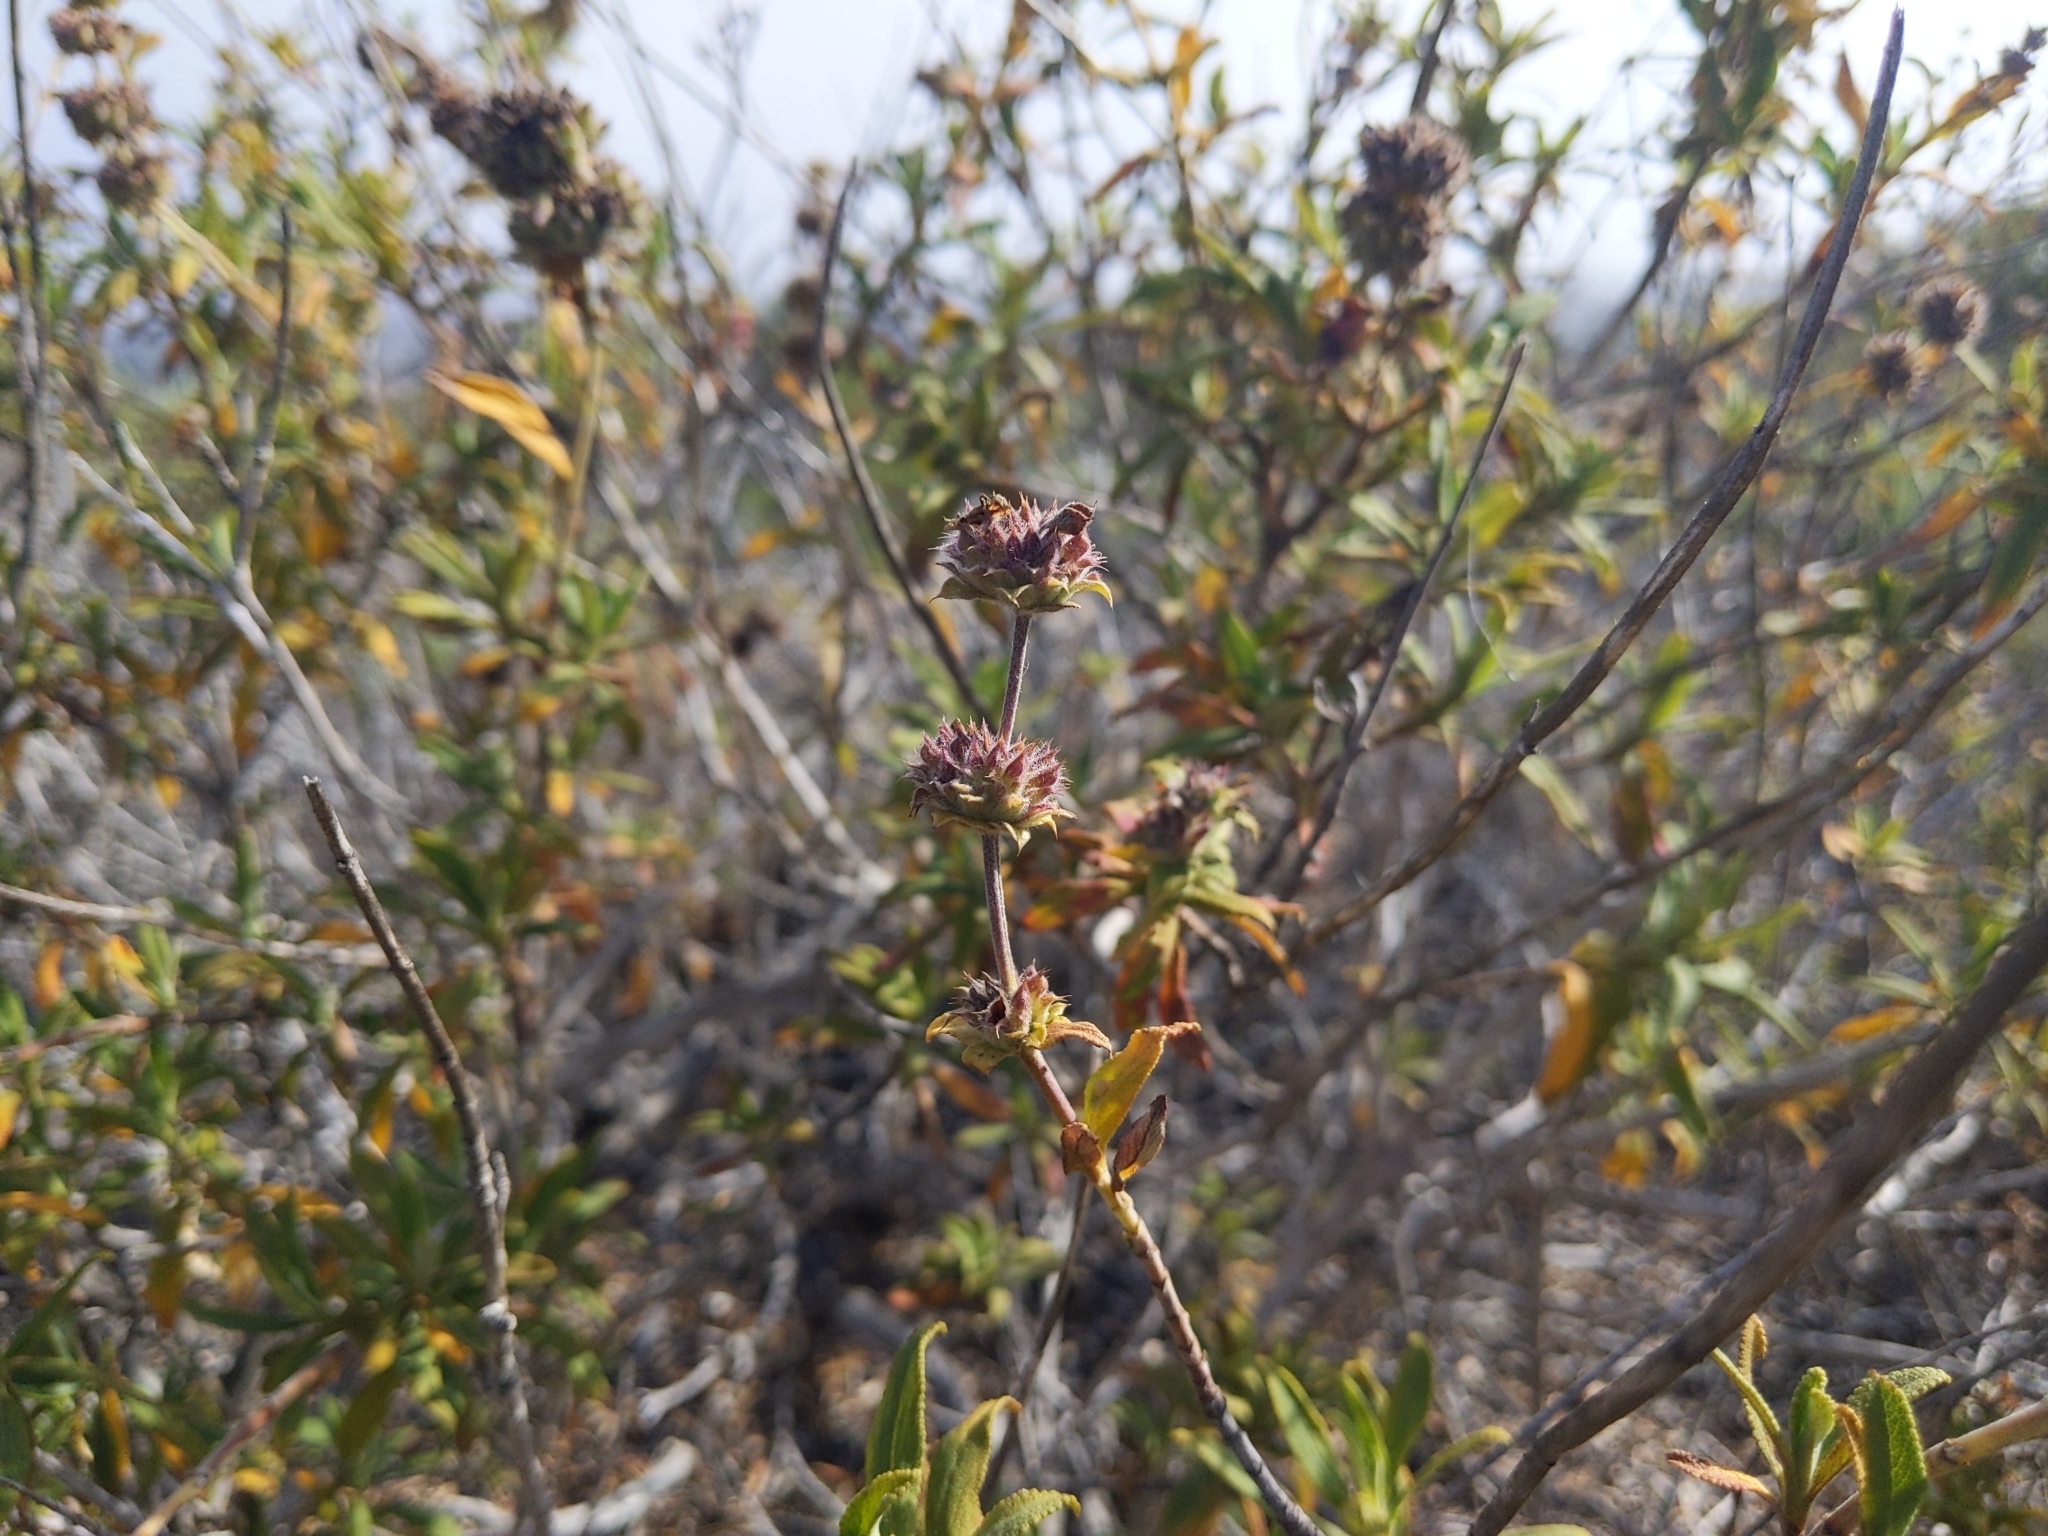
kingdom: Plantae
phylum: Tracheophyta
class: Magnoliopsida
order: Lamiales
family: Lamiaceae
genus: Salvia
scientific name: Salvia mellifera
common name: Black sage
